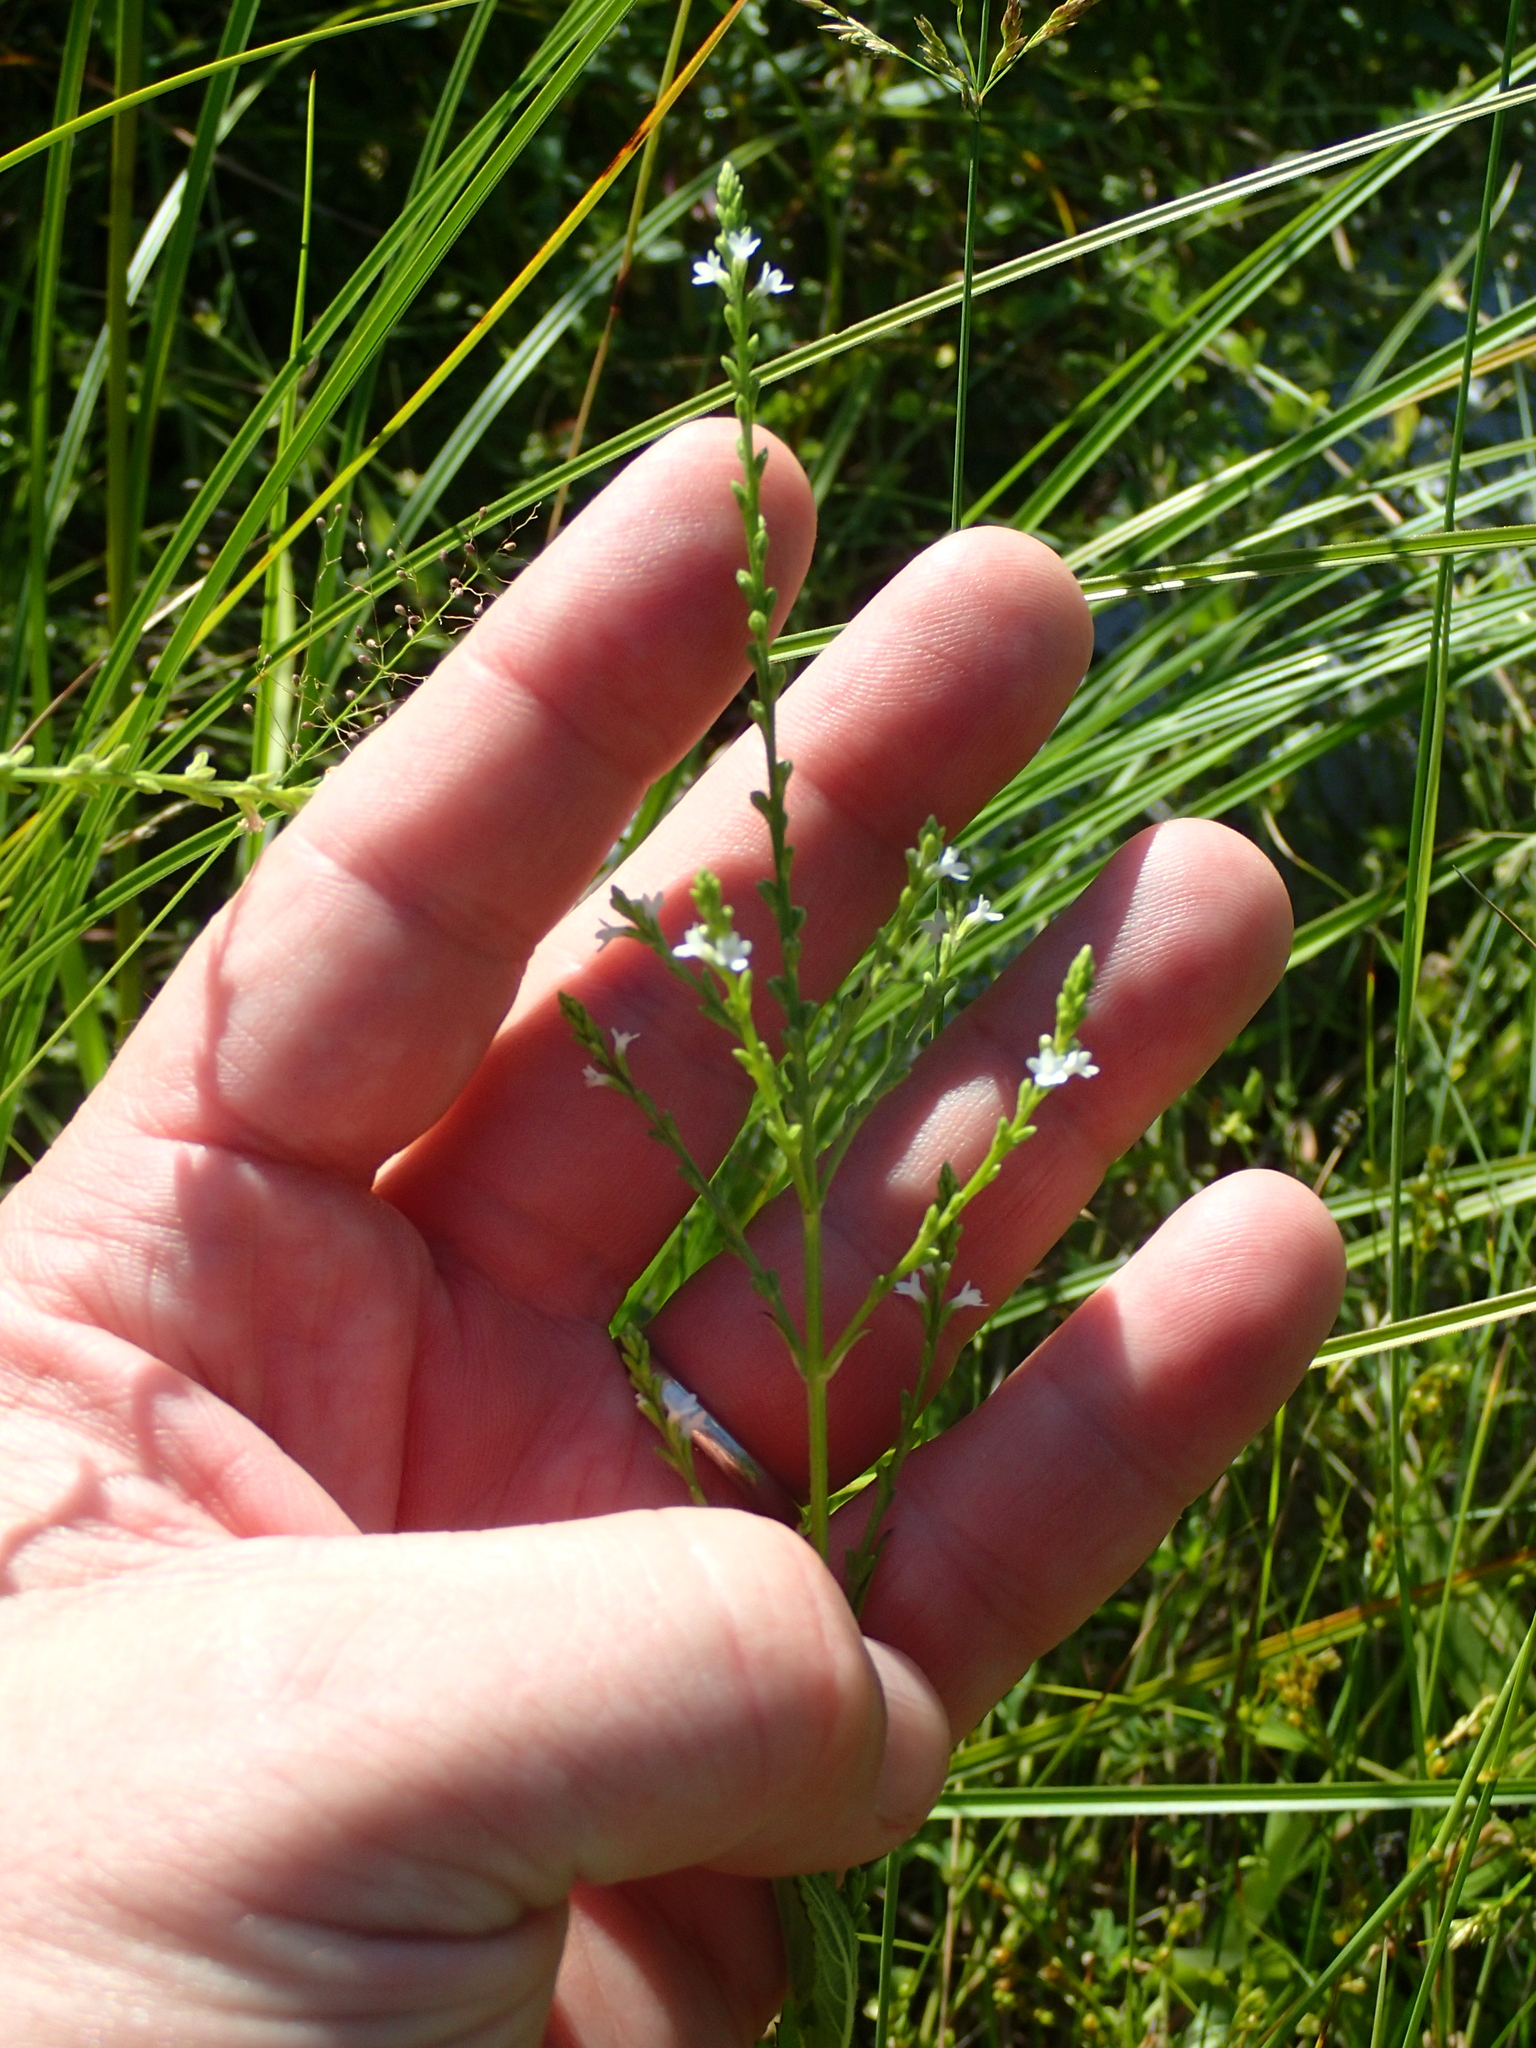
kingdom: Plantae
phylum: Tracheophyta
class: Magnoliopsida
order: Lamiales
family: Verbenaceae
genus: Verbena
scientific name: Verbena urticifolia
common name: Nettle-leaved vervain
